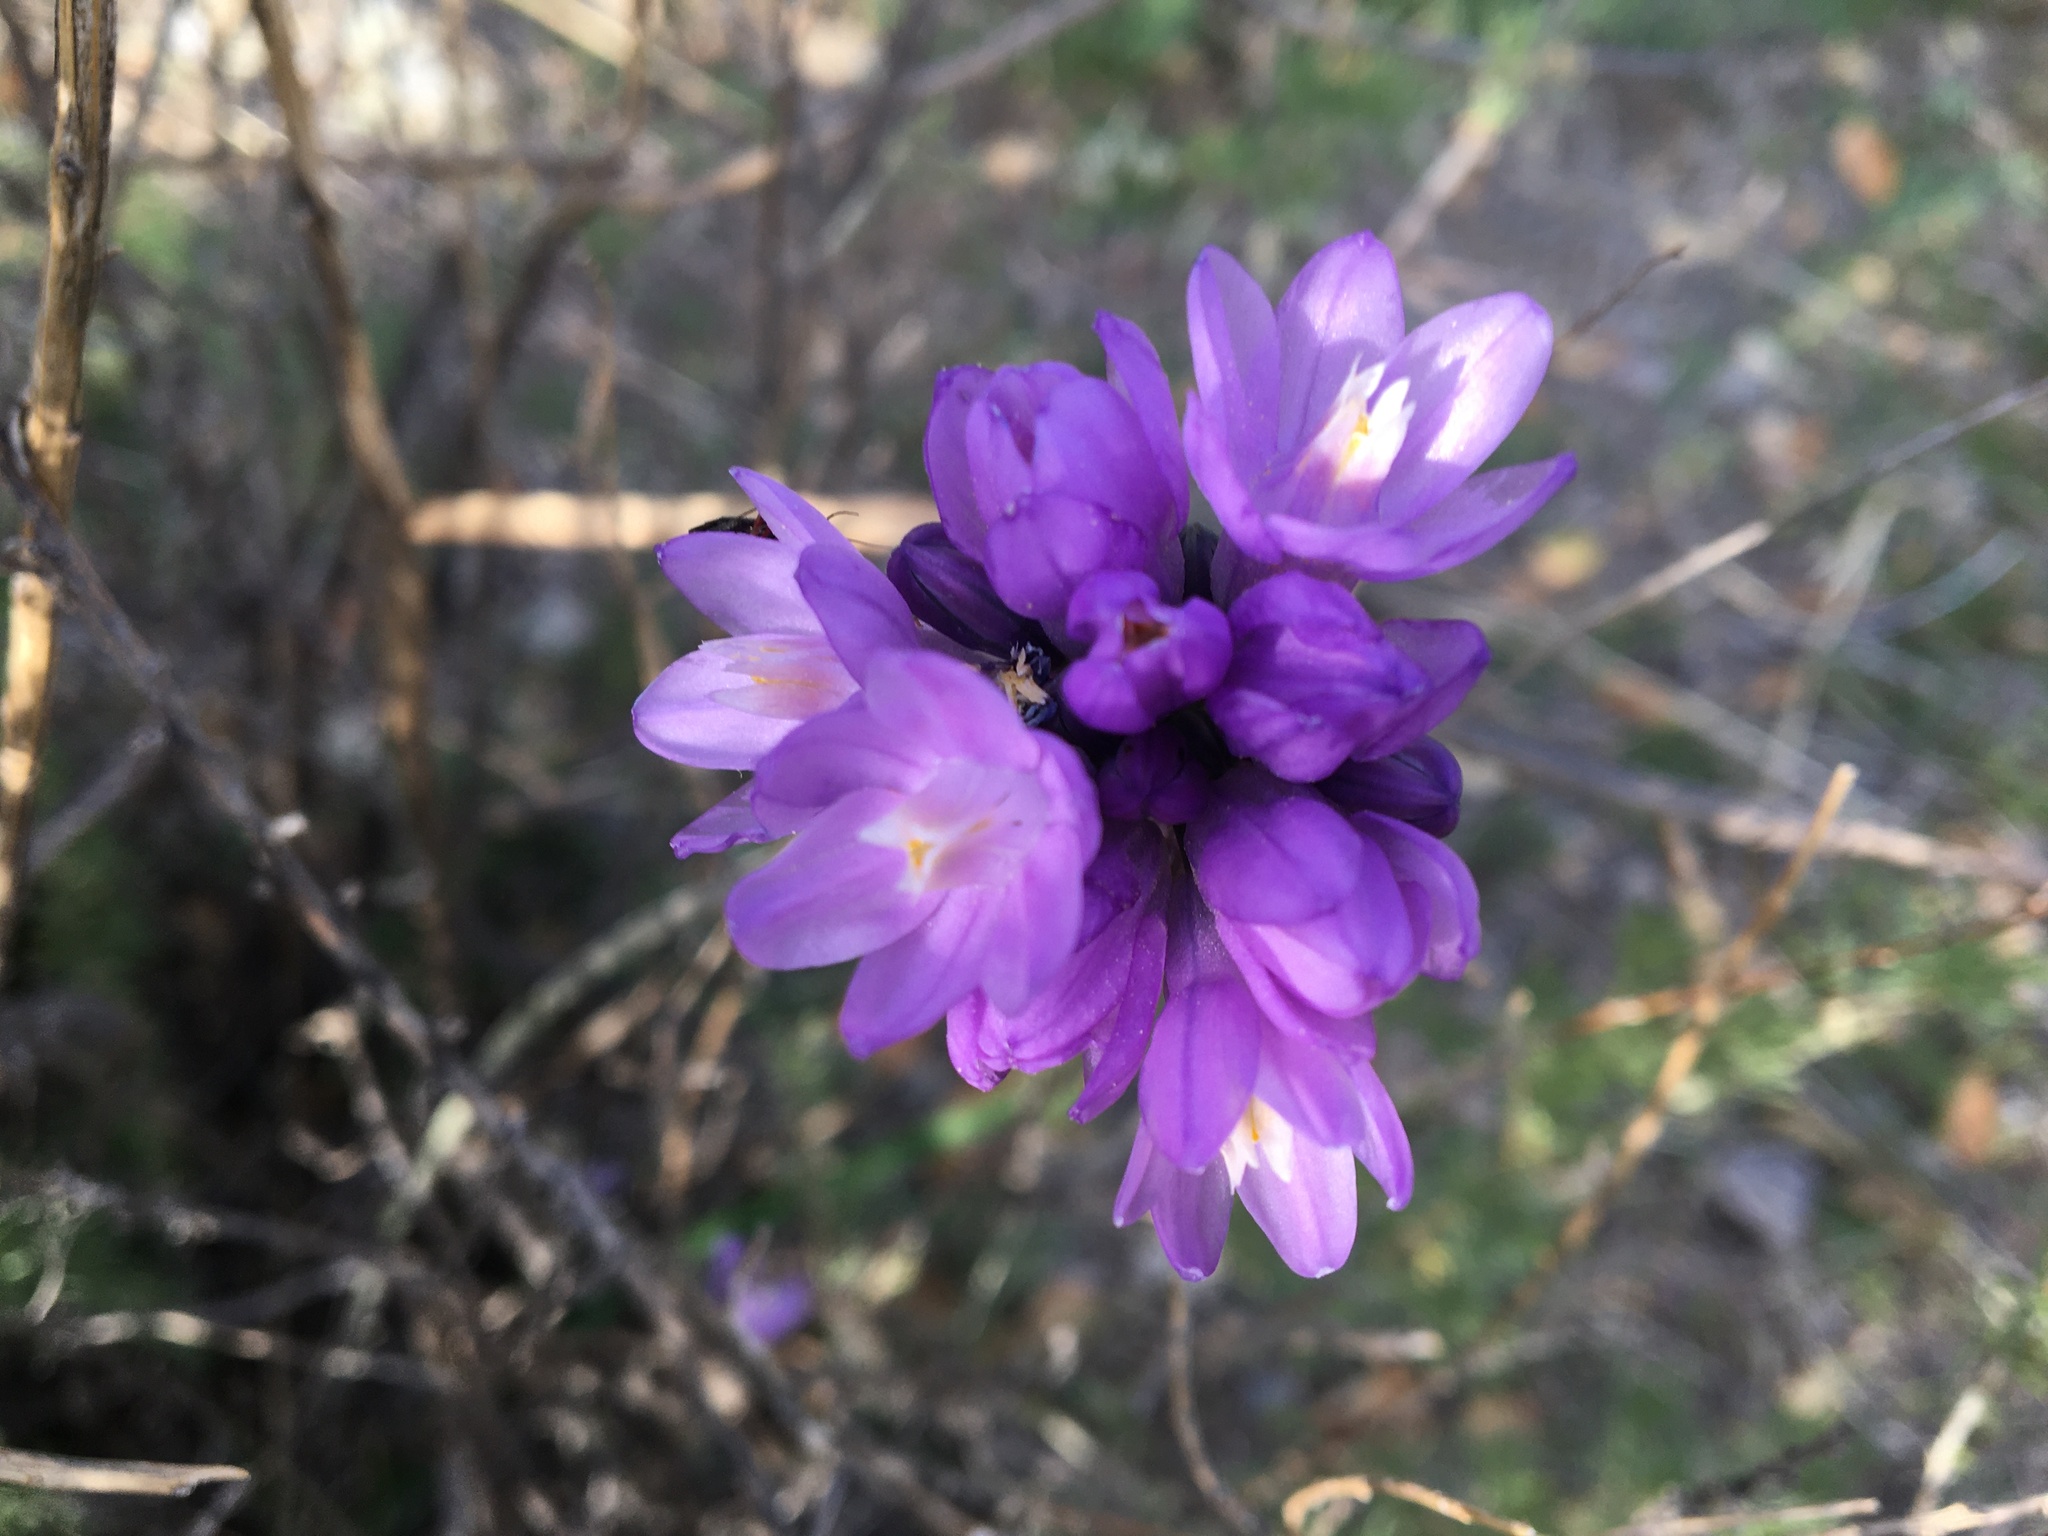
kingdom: Plantae
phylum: Tracheophyta
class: Liliopsida
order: Asparagales
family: Asparagaceae
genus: Dipterostemon
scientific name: Dipterostemon capitatus
